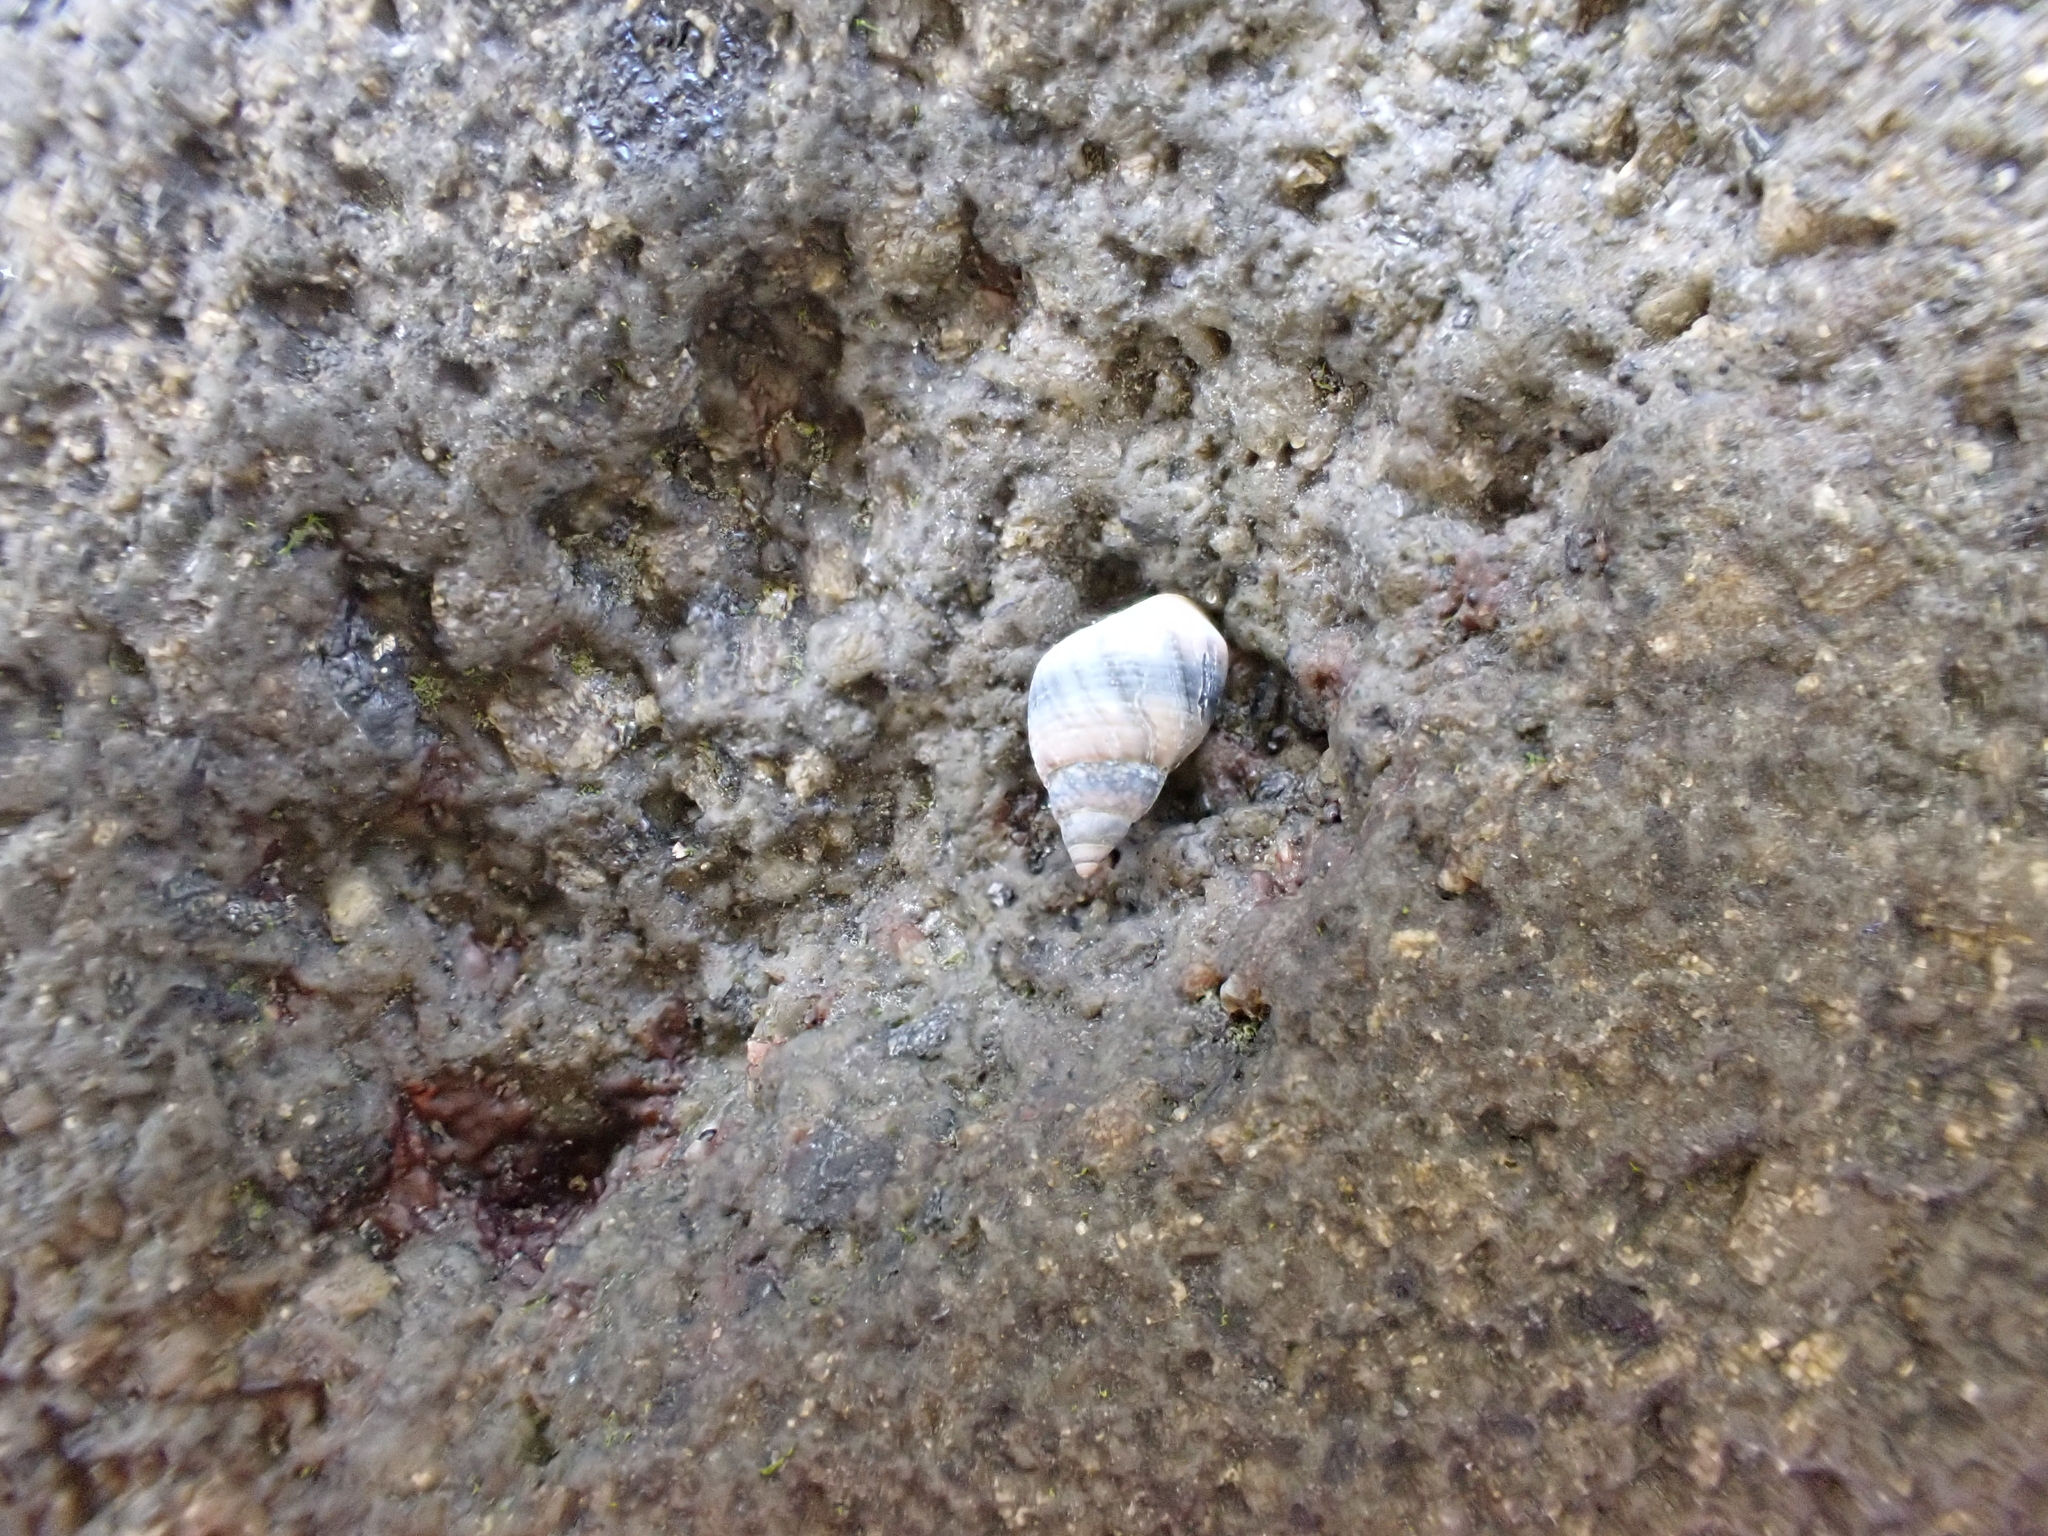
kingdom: Animalia
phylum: Mollusca
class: Gastropoda
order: Littorinimorpha
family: Littorinidae
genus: Austrolittorina
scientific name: Austrolittorina antipodum
